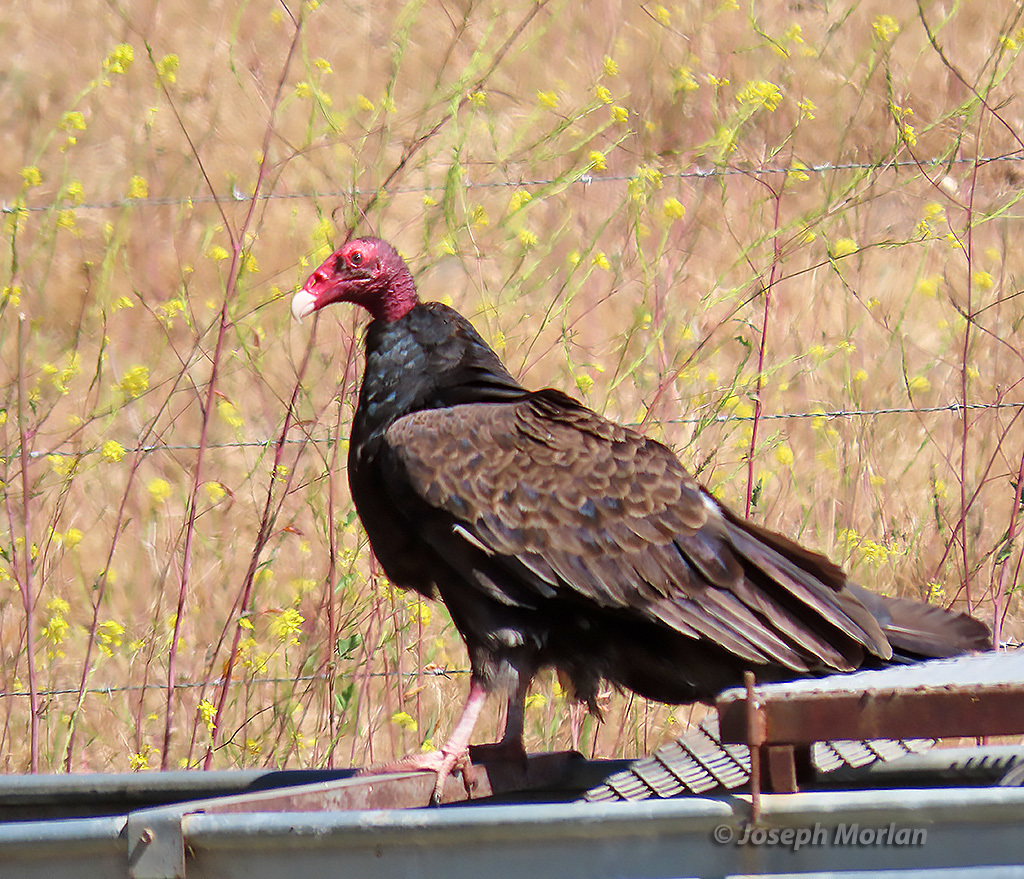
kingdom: Animalia
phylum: Chordata
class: Aves
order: Accipitriformes
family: Cathartidae
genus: Cathartes
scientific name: Cathartes aura
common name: Turkey vulture
